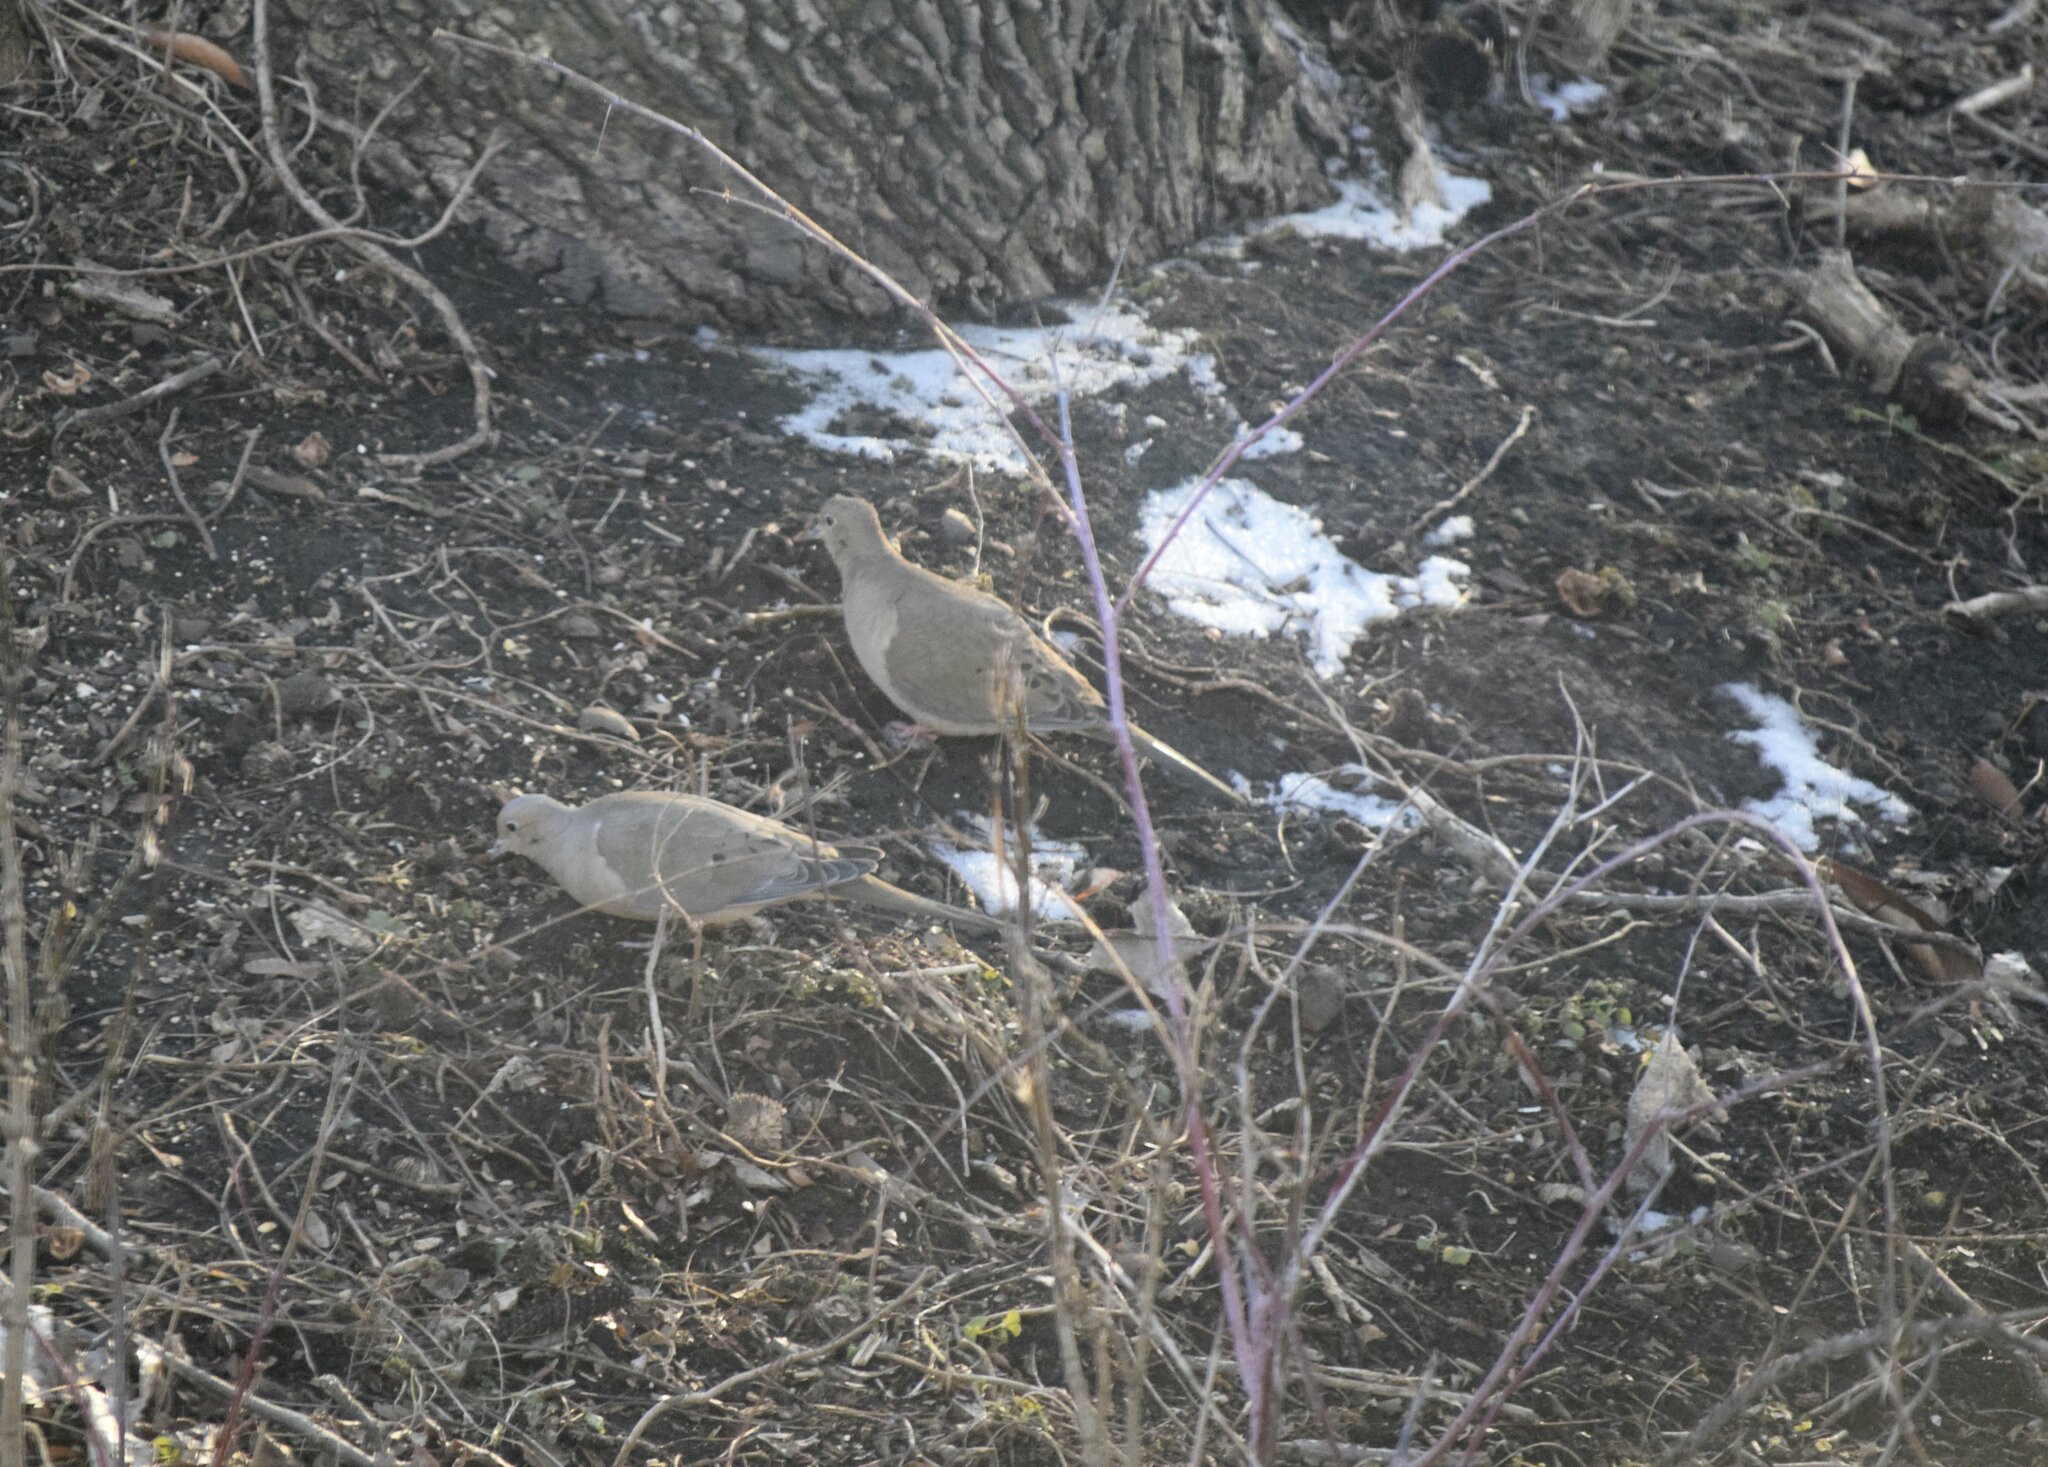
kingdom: Animalia
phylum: Chordata
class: Aves
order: Columbiformes
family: Columbidae
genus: Zenaida
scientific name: Zenaida macroura
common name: Mourning dove
